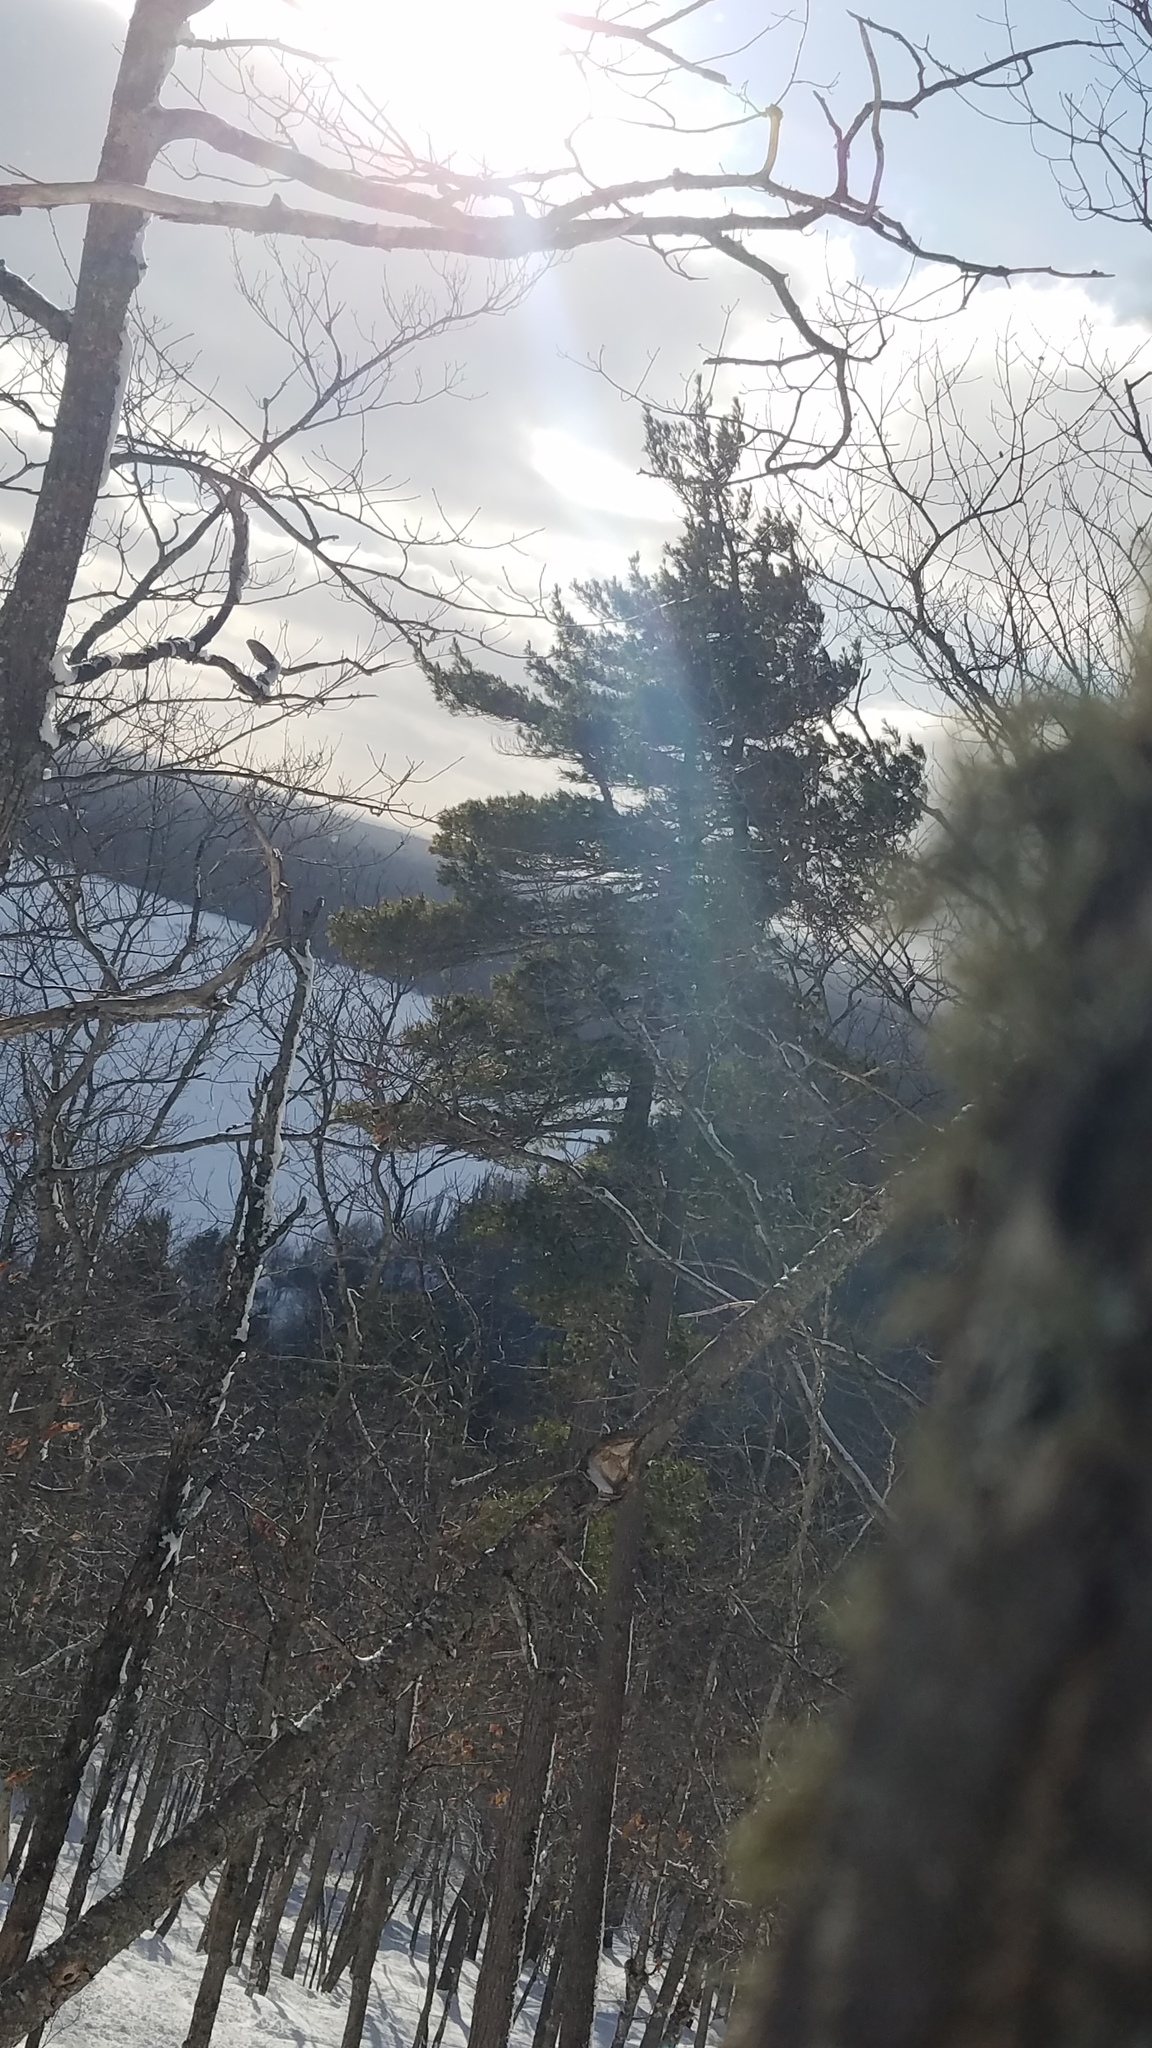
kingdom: Plantae
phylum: Tracheophyta
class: Pinopsida
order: Pinales
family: Pinaceae
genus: Pinus
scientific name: Pinus strobus
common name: Weymouth pine
